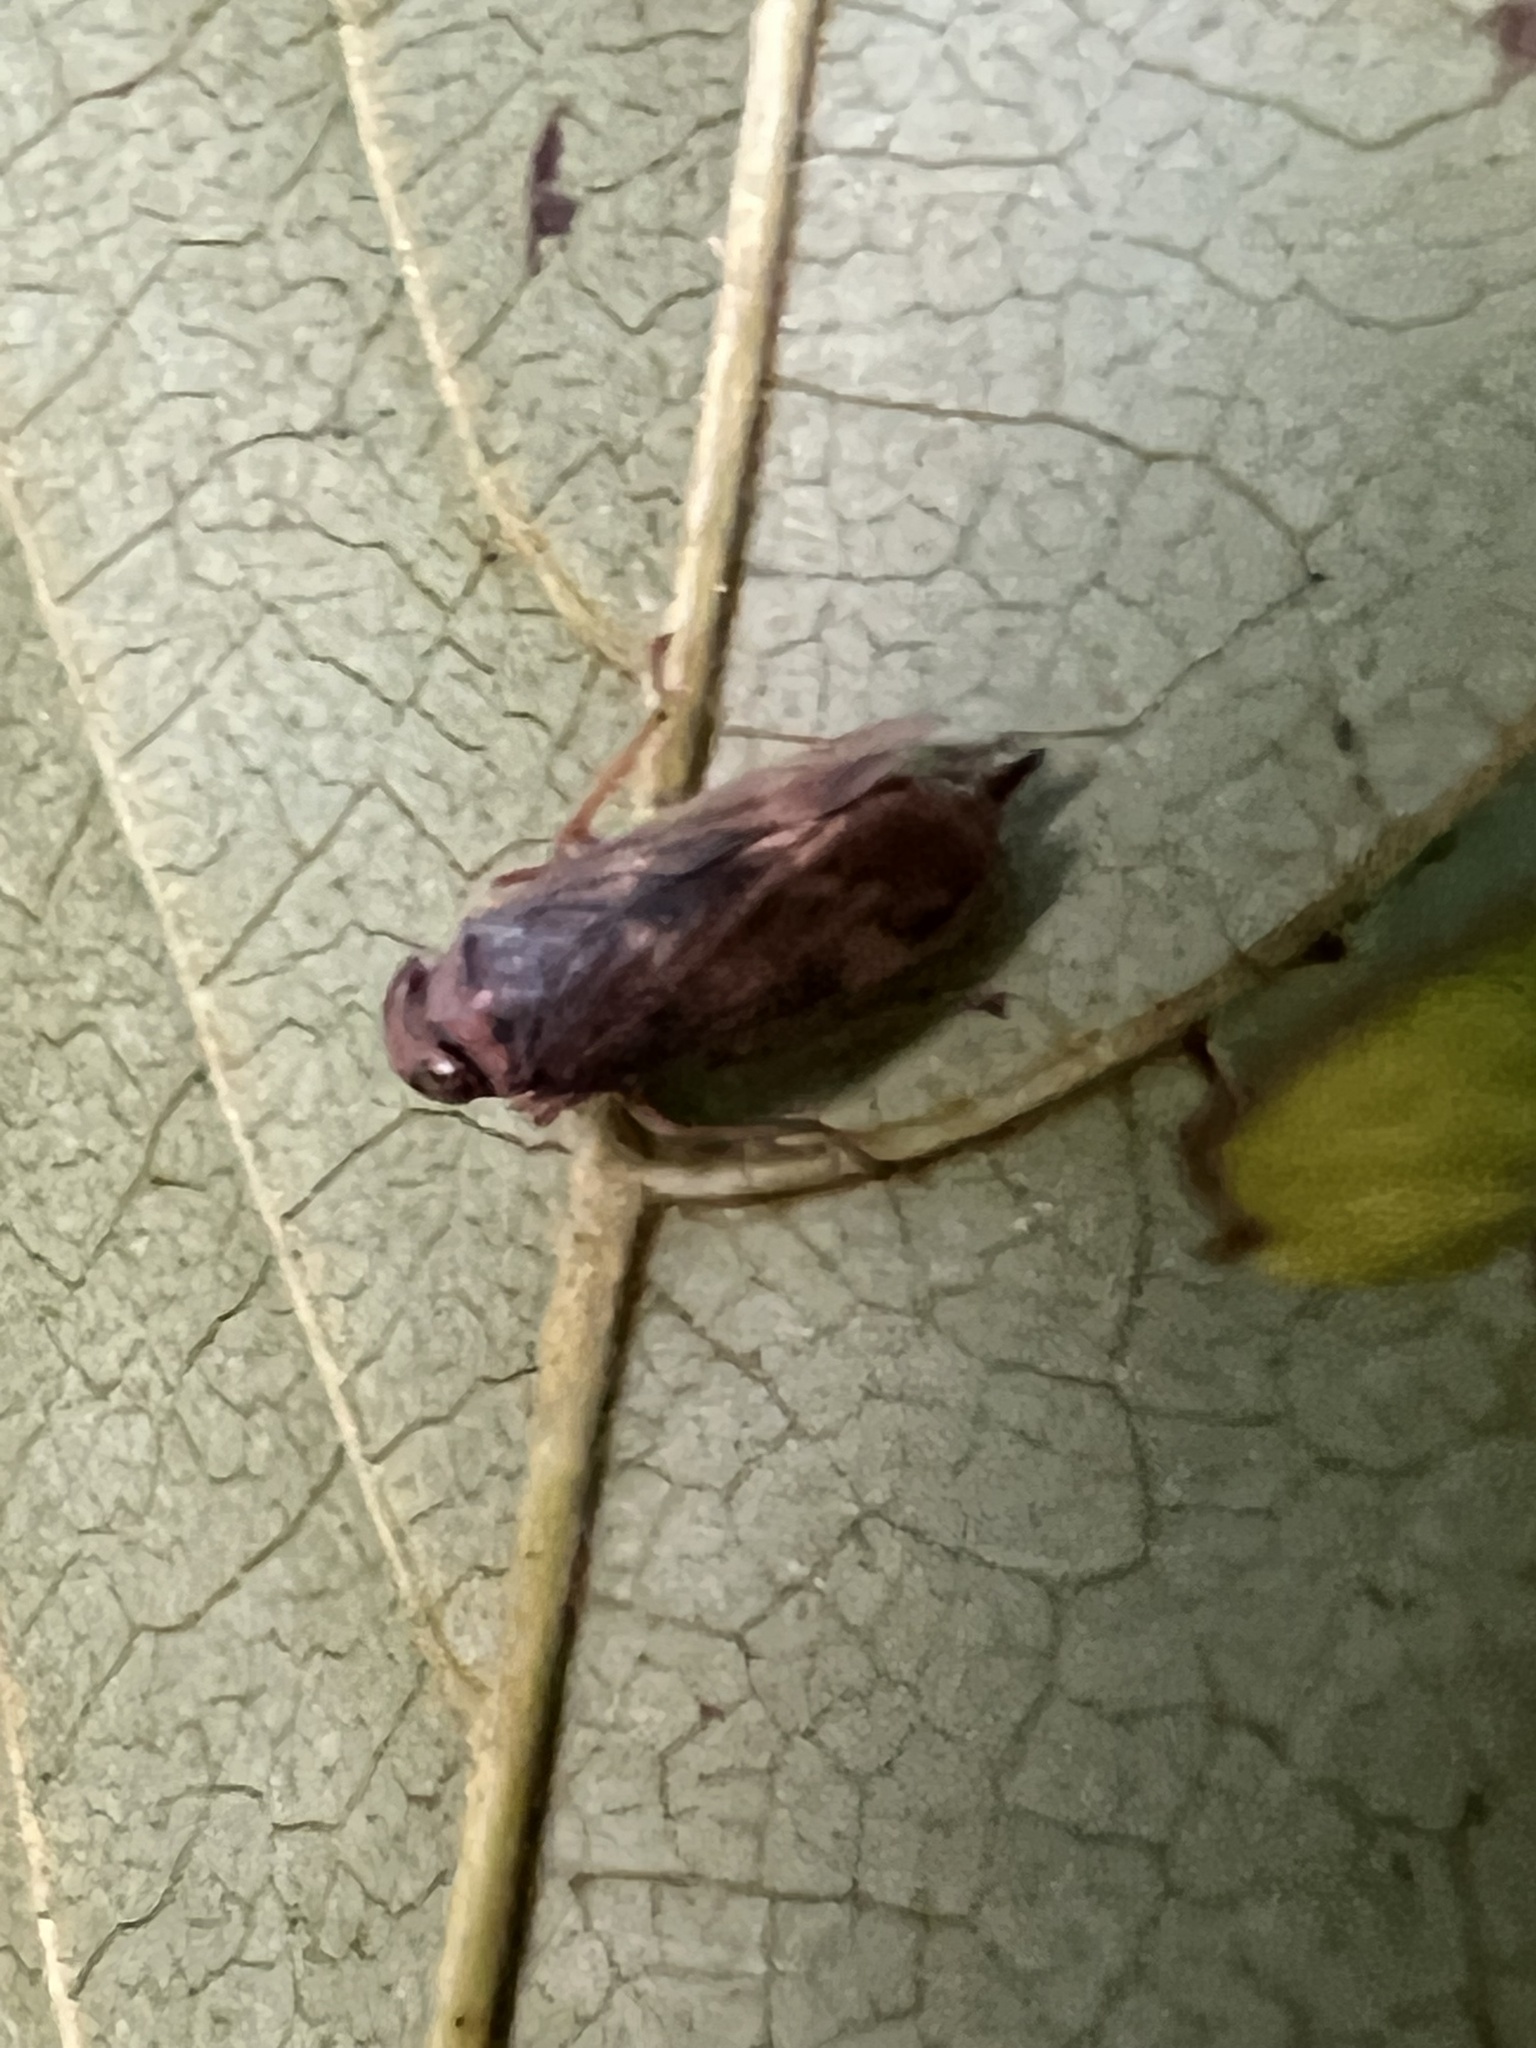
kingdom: Animalia
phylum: Arthropoda
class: Insecta
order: Hemiptera
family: Cicadellidae
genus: Jikradia
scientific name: Jikradia olitoria
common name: Coppery leafhopper
